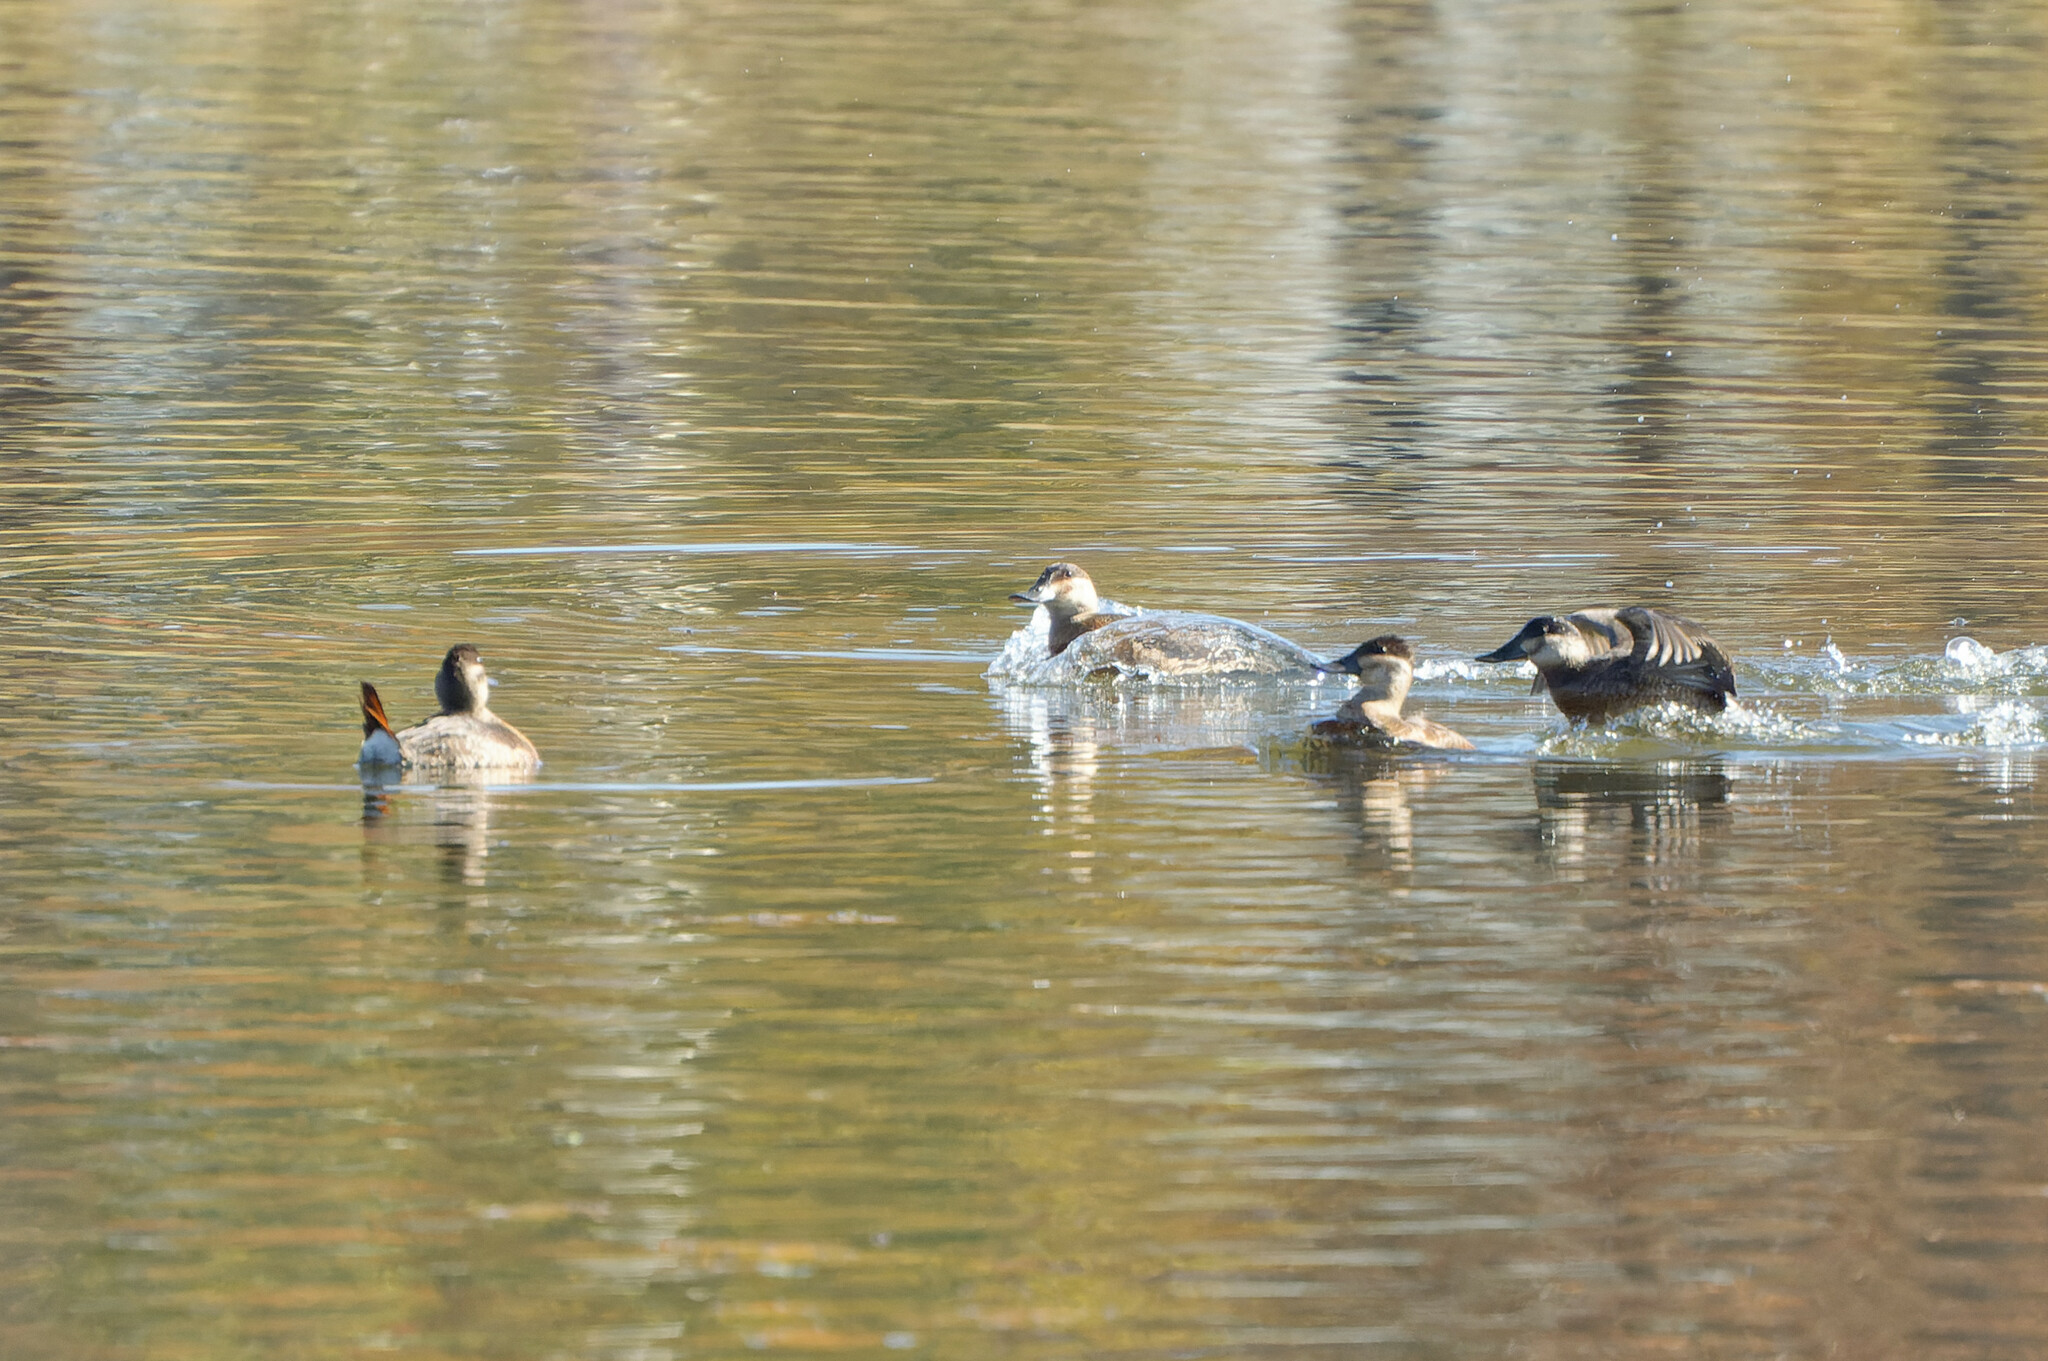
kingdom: Animalia
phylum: Chordata
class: Aves
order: Anseriformes
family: Anatidae
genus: Oxyura
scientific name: Oxyura jamaicensis
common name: Ruddy duck
